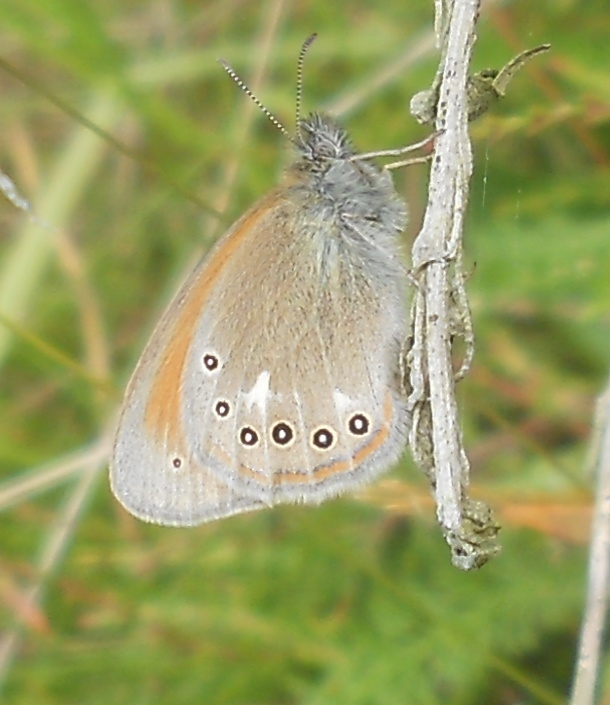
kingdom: Animalia
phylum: Arthropoda
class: Insecta
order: Lepidoptera
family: Nymphalidae
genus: Coenonympha
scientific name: Coenonympha iphis
